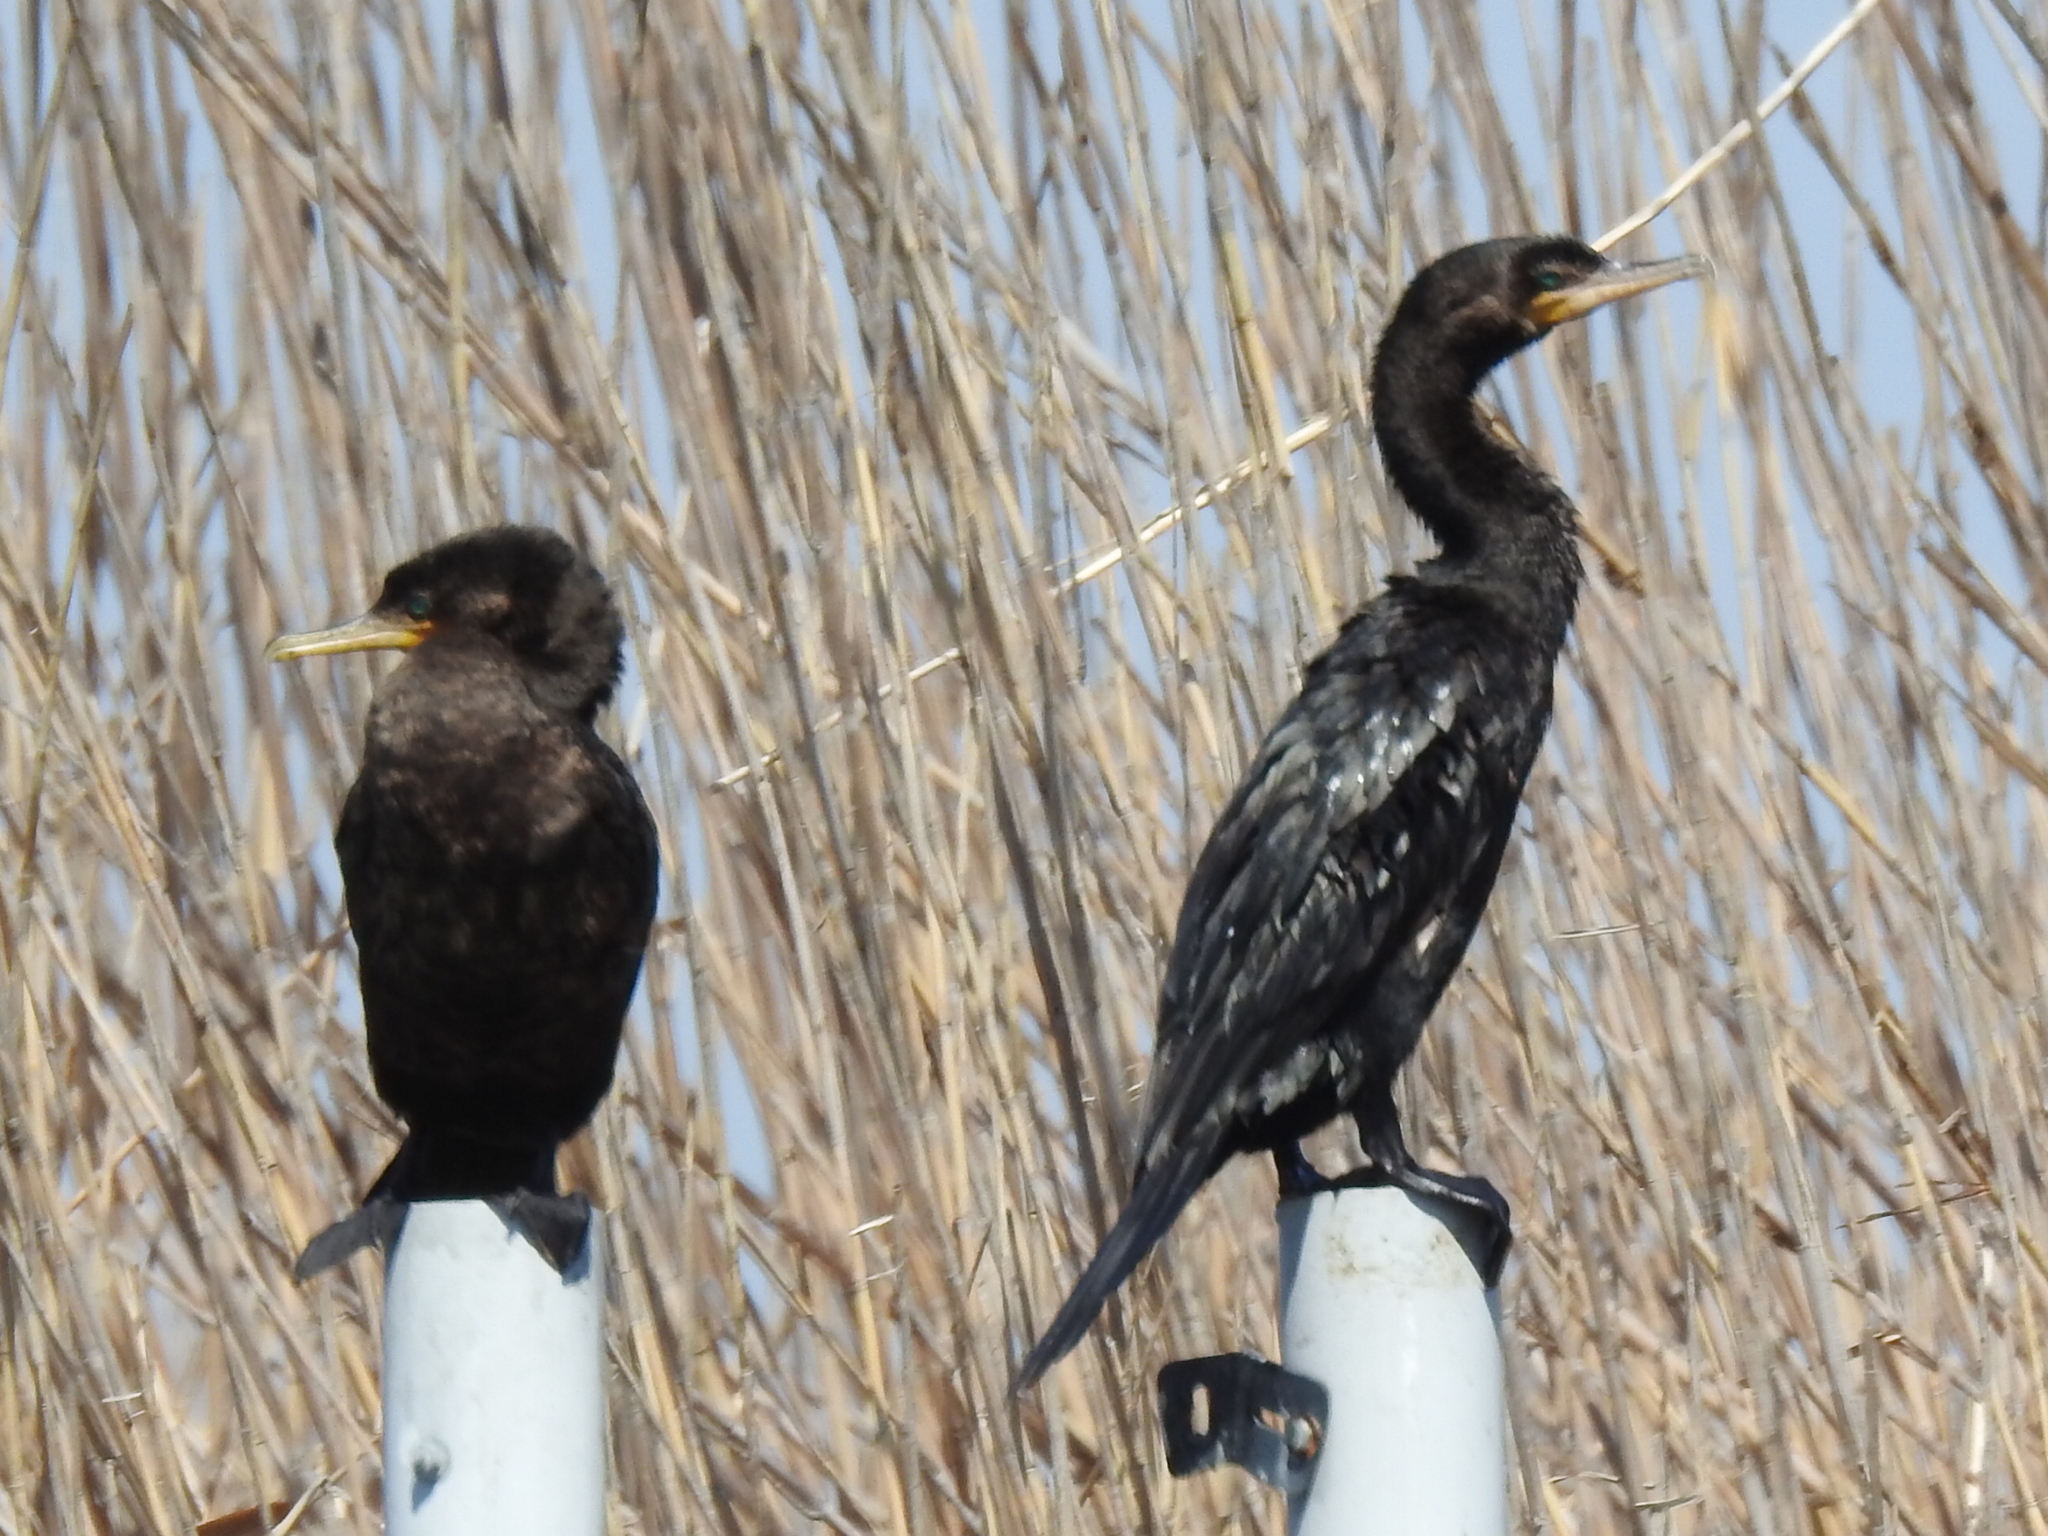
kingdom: Animalia
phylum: Chordata
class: Aves
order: Suliformes
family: Phalacrocoracidae
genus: Phalacrocorax
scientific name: Phalacrocorax brasilianus
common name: Neotropic cormorant
